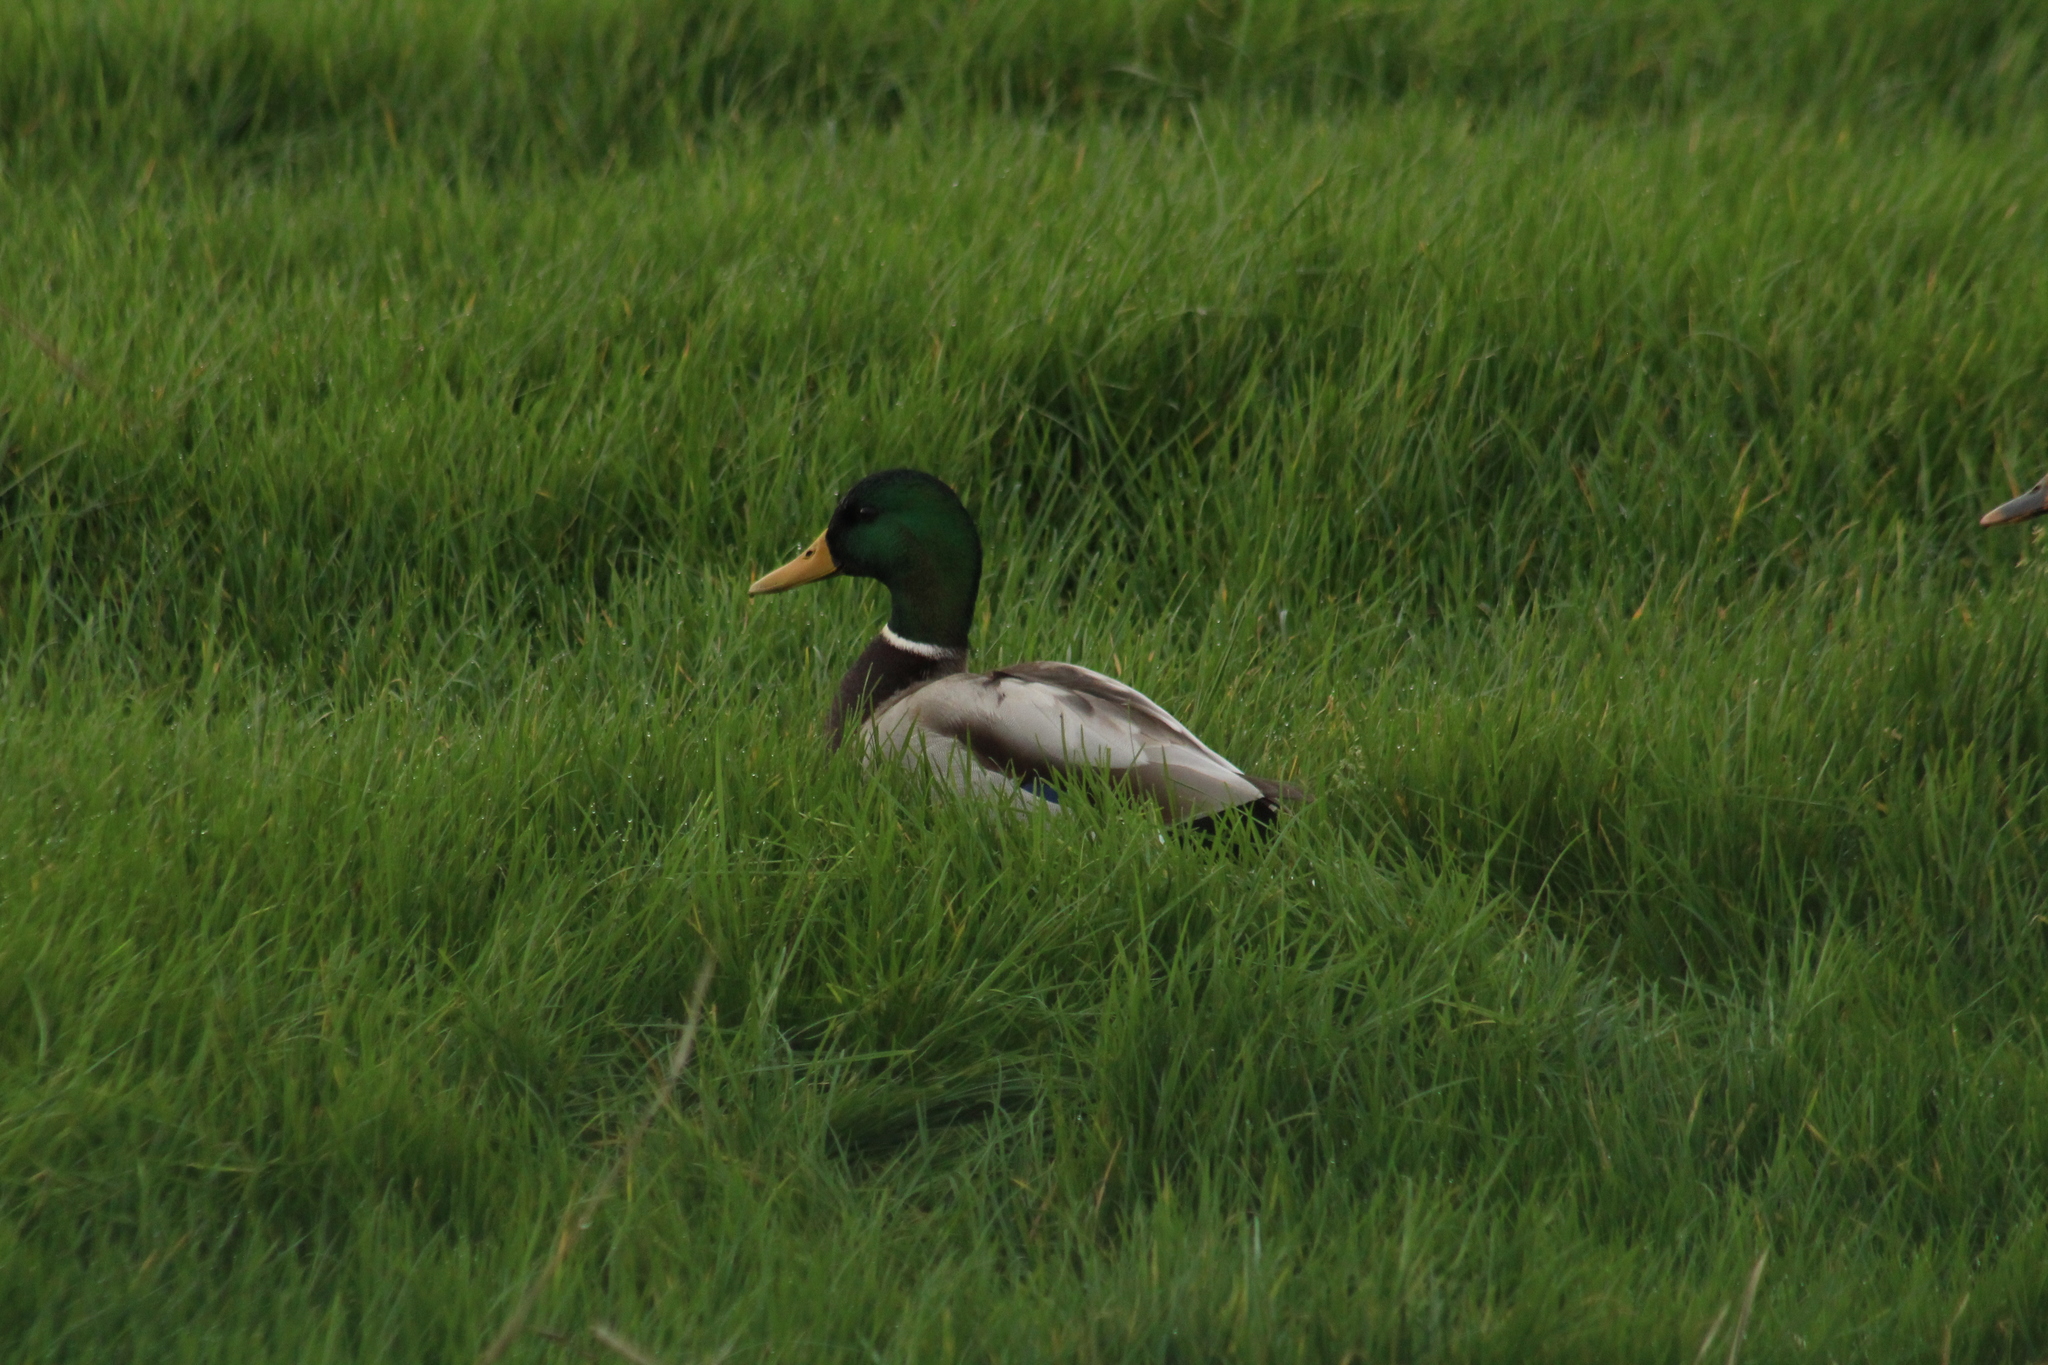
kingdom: Animalia
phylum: Chordata
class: Aves
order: Anseriformes
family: Anatidae
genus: Anas
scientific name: Anas platyrhynchos
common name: Mallard
